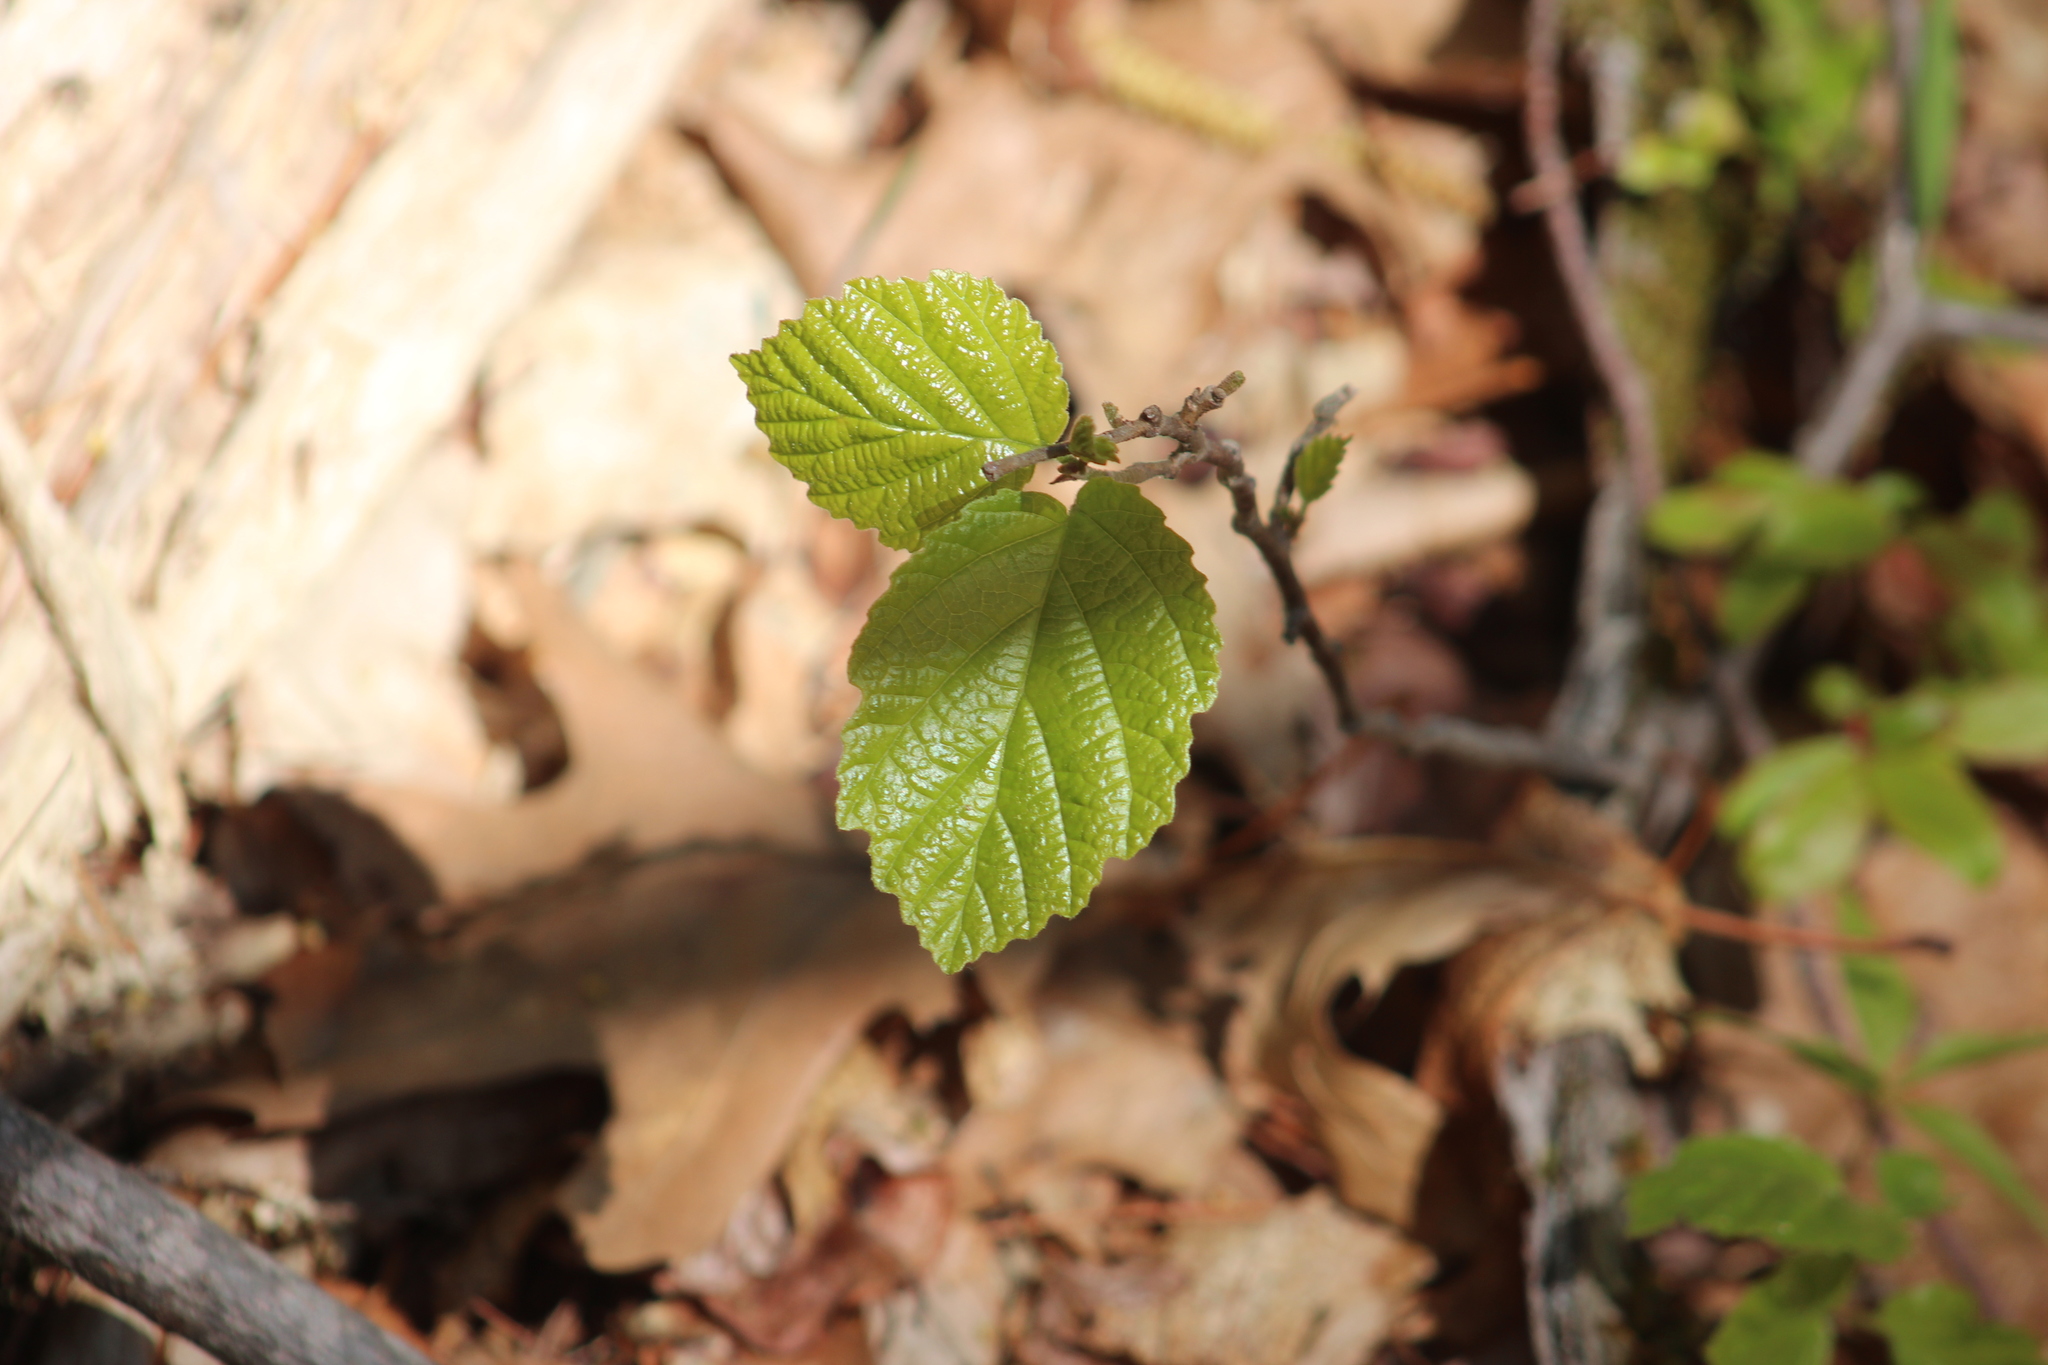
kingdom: Plantae
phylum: Tracheophyta
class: Magnoliopsida
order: Saxifragales
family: Hamamelidaceae
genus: Hamamelis
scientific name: Hamamelis virginiana
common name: Witch-hazel
